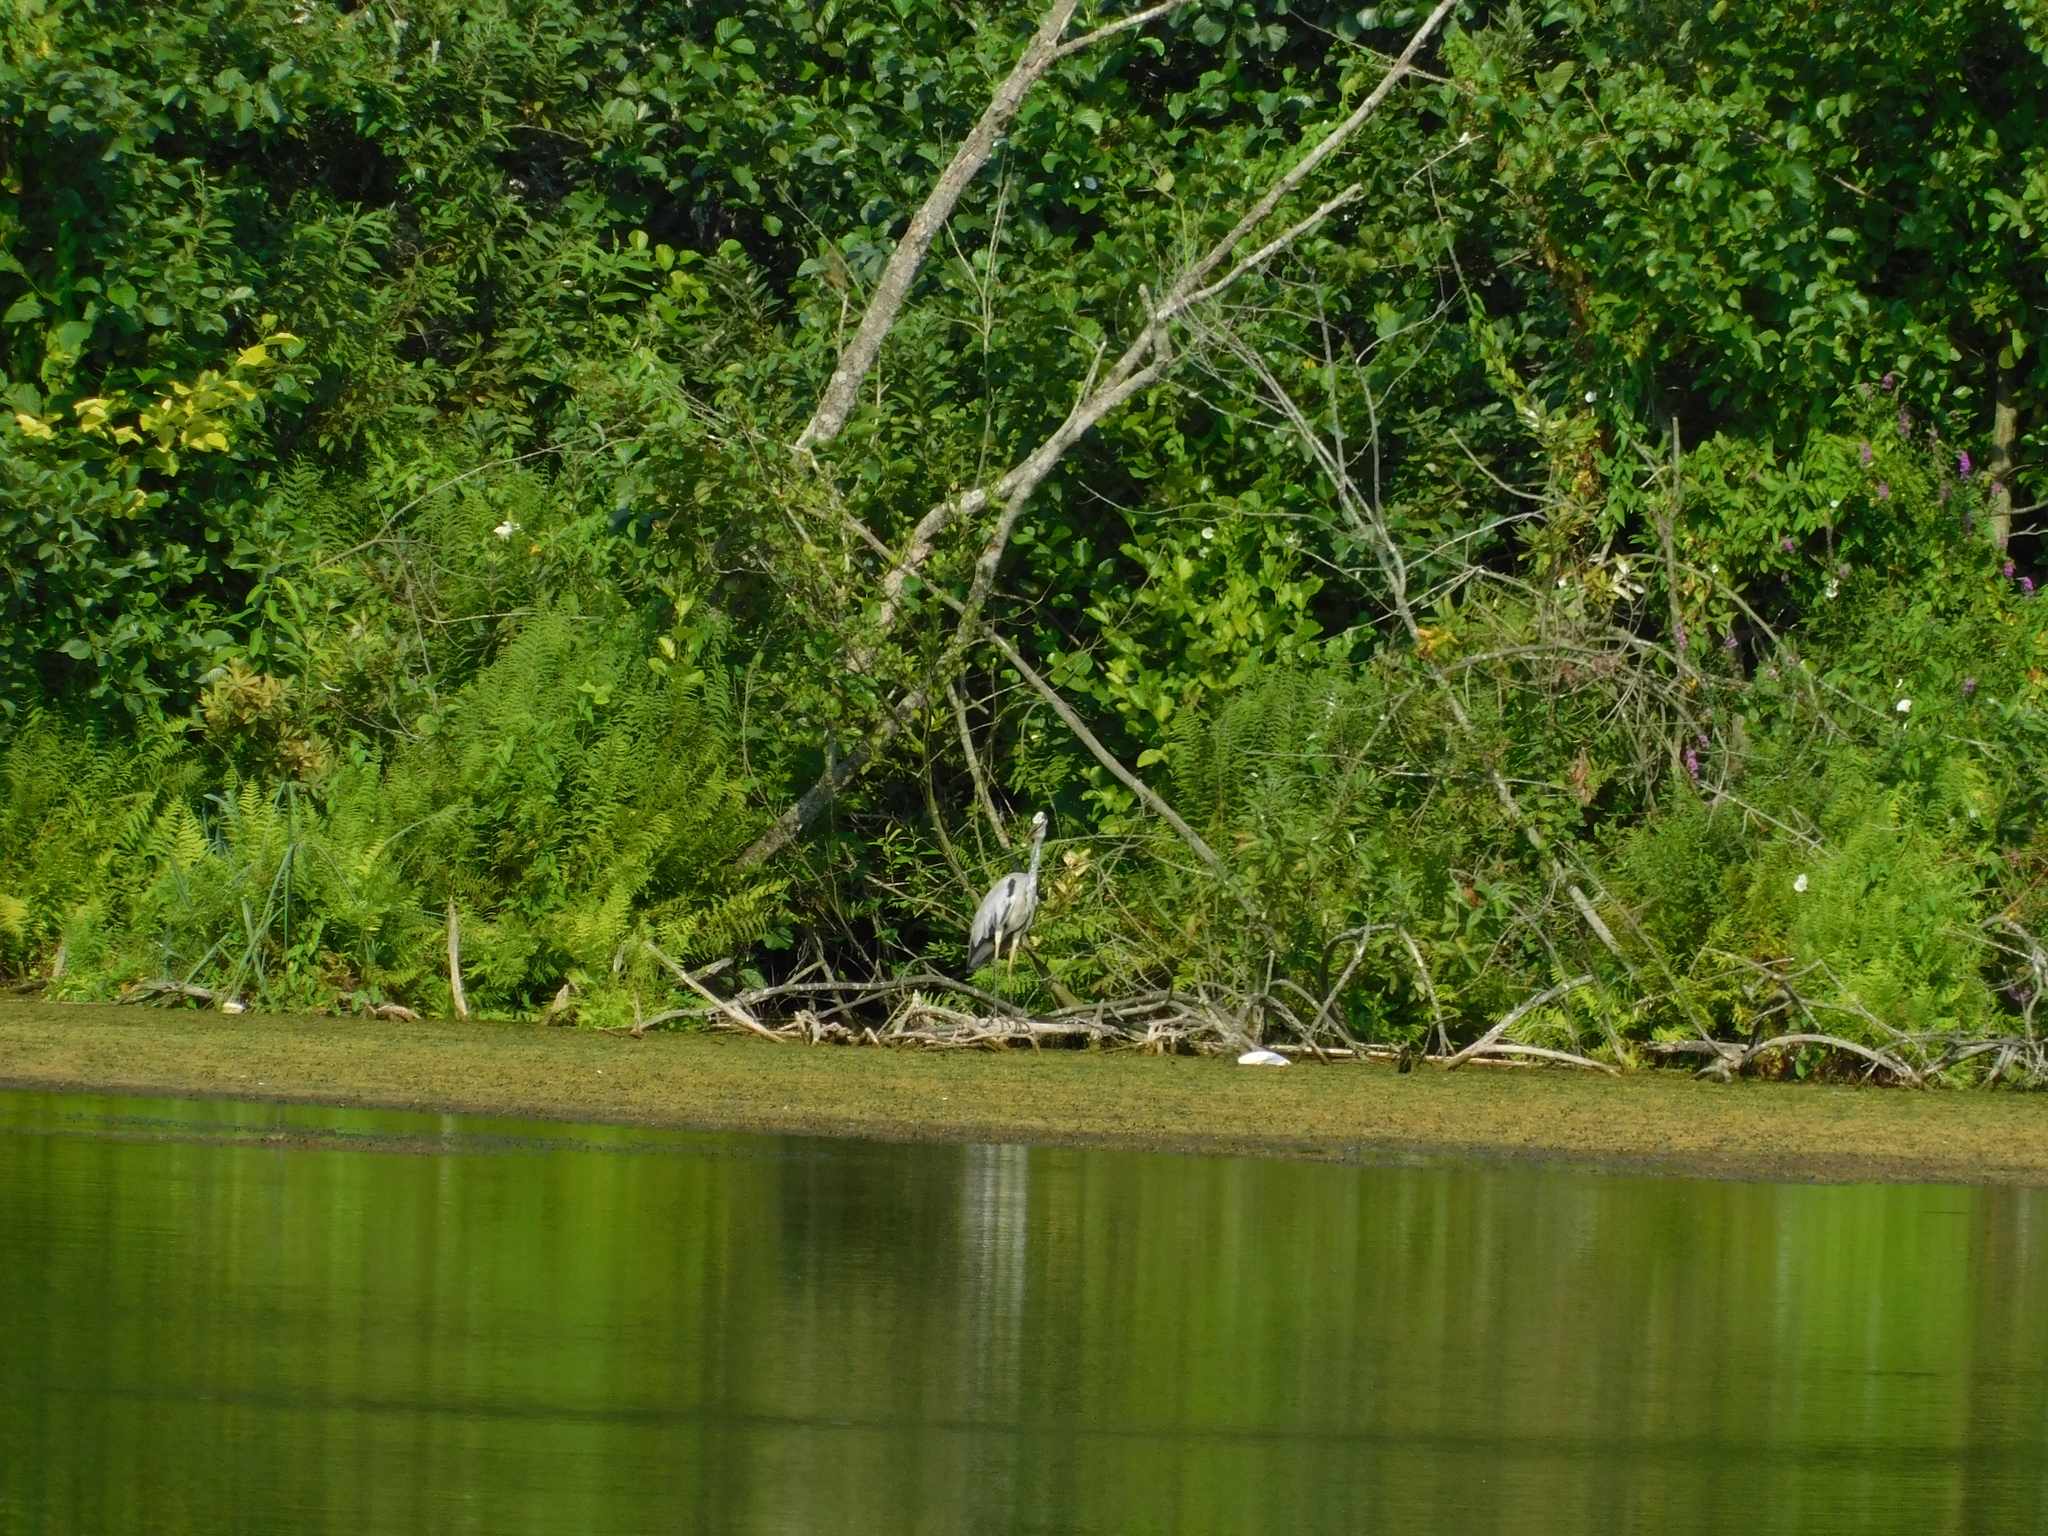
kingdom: Animalia
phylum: Chordata
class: Aves
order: Pelecaniformes
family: Ardeidae
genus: Ardea
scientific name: Ardea cinerea
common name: Grey heron
